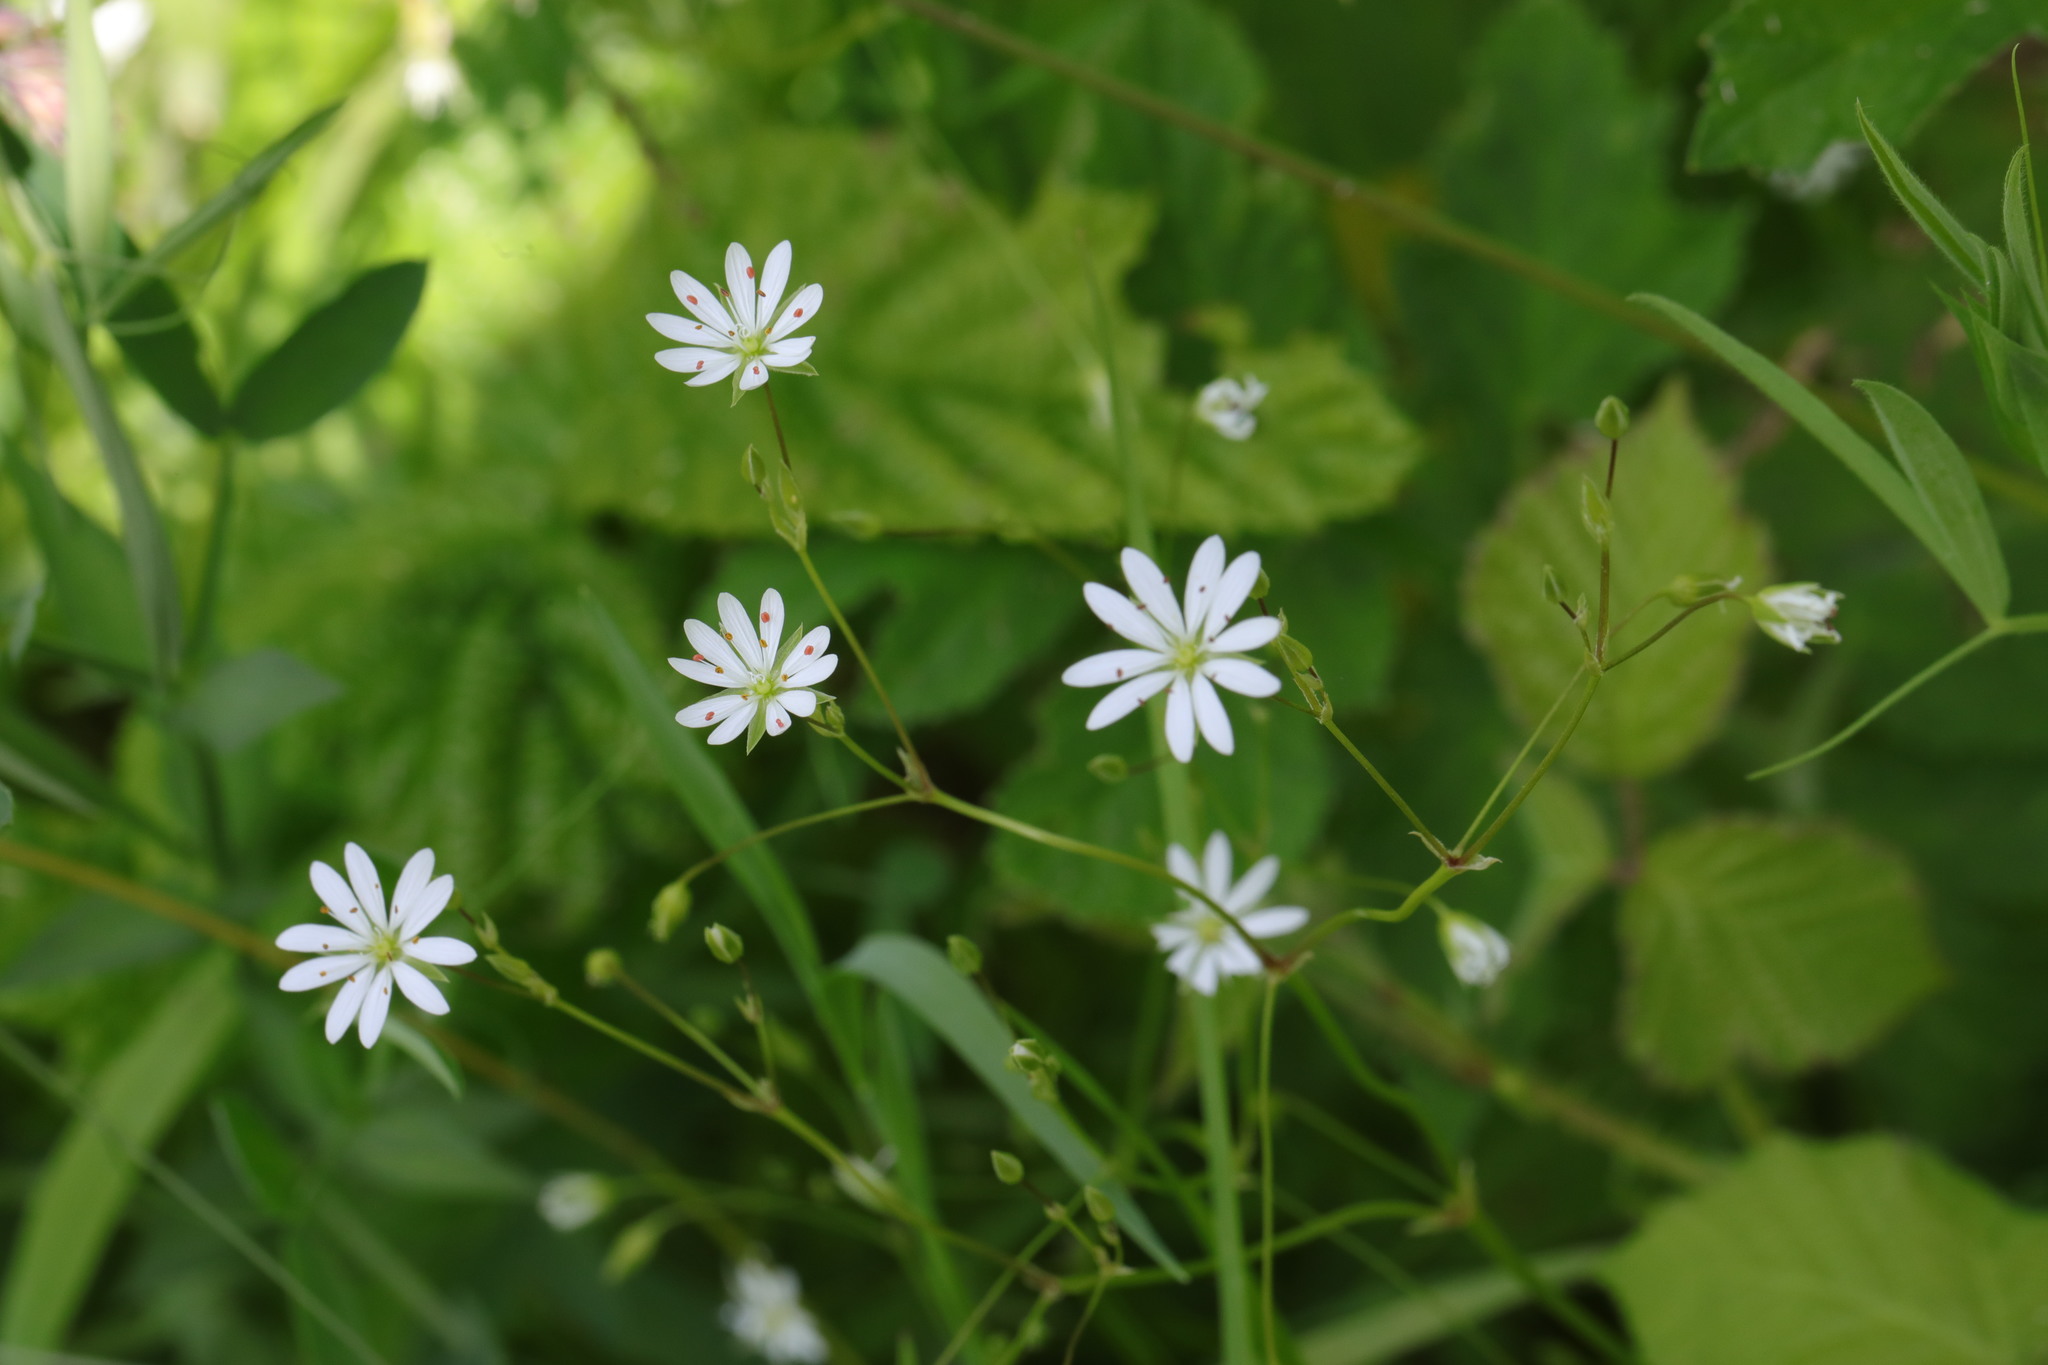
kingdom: Plantae
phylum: Tracheophyta
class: Magnoliopsida
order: Caryophyllales
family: Caryophyllaceae
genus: Stellaria
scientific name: Stellaria graminea
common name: Grass-like starwort
